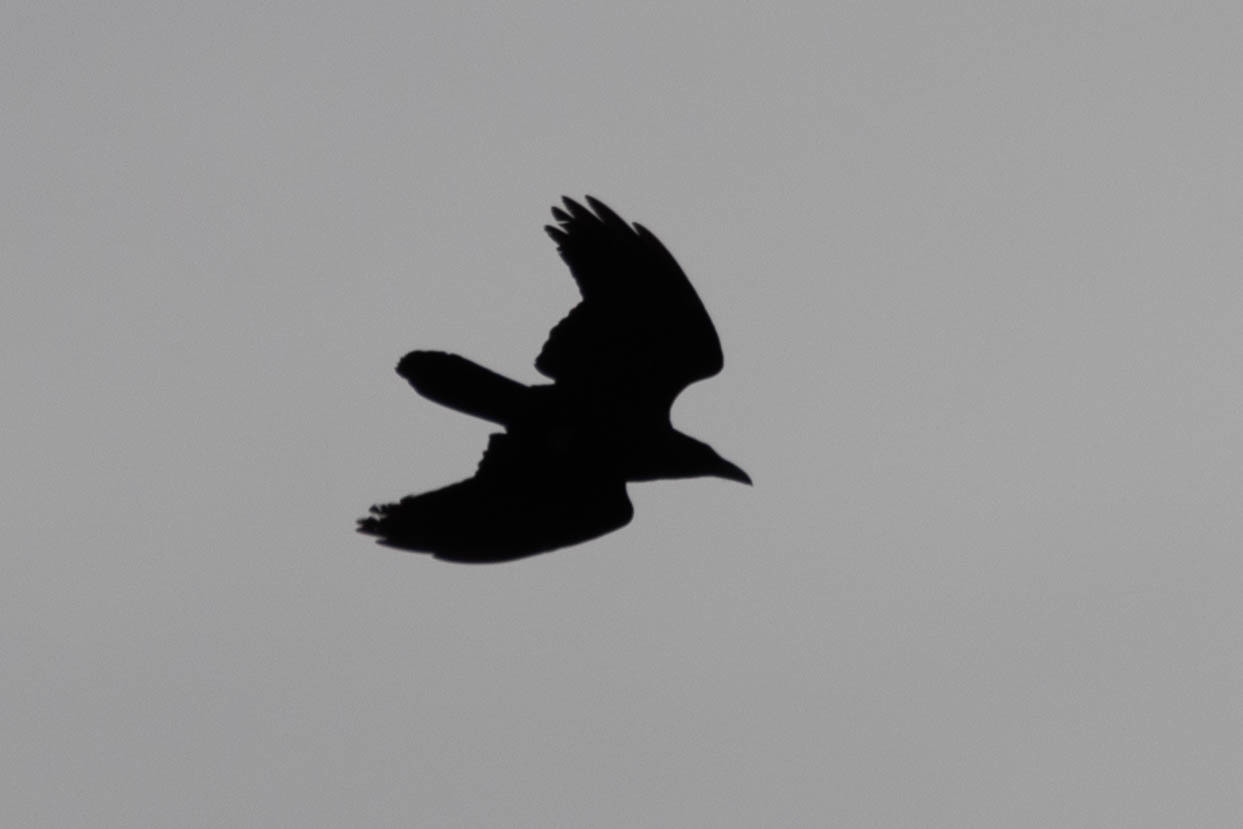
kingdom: Animalia
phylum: Chordata
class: Aves
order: Passeriformes
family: Corvidae
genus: Corvus
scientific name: Corvus corax
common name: Common raven
